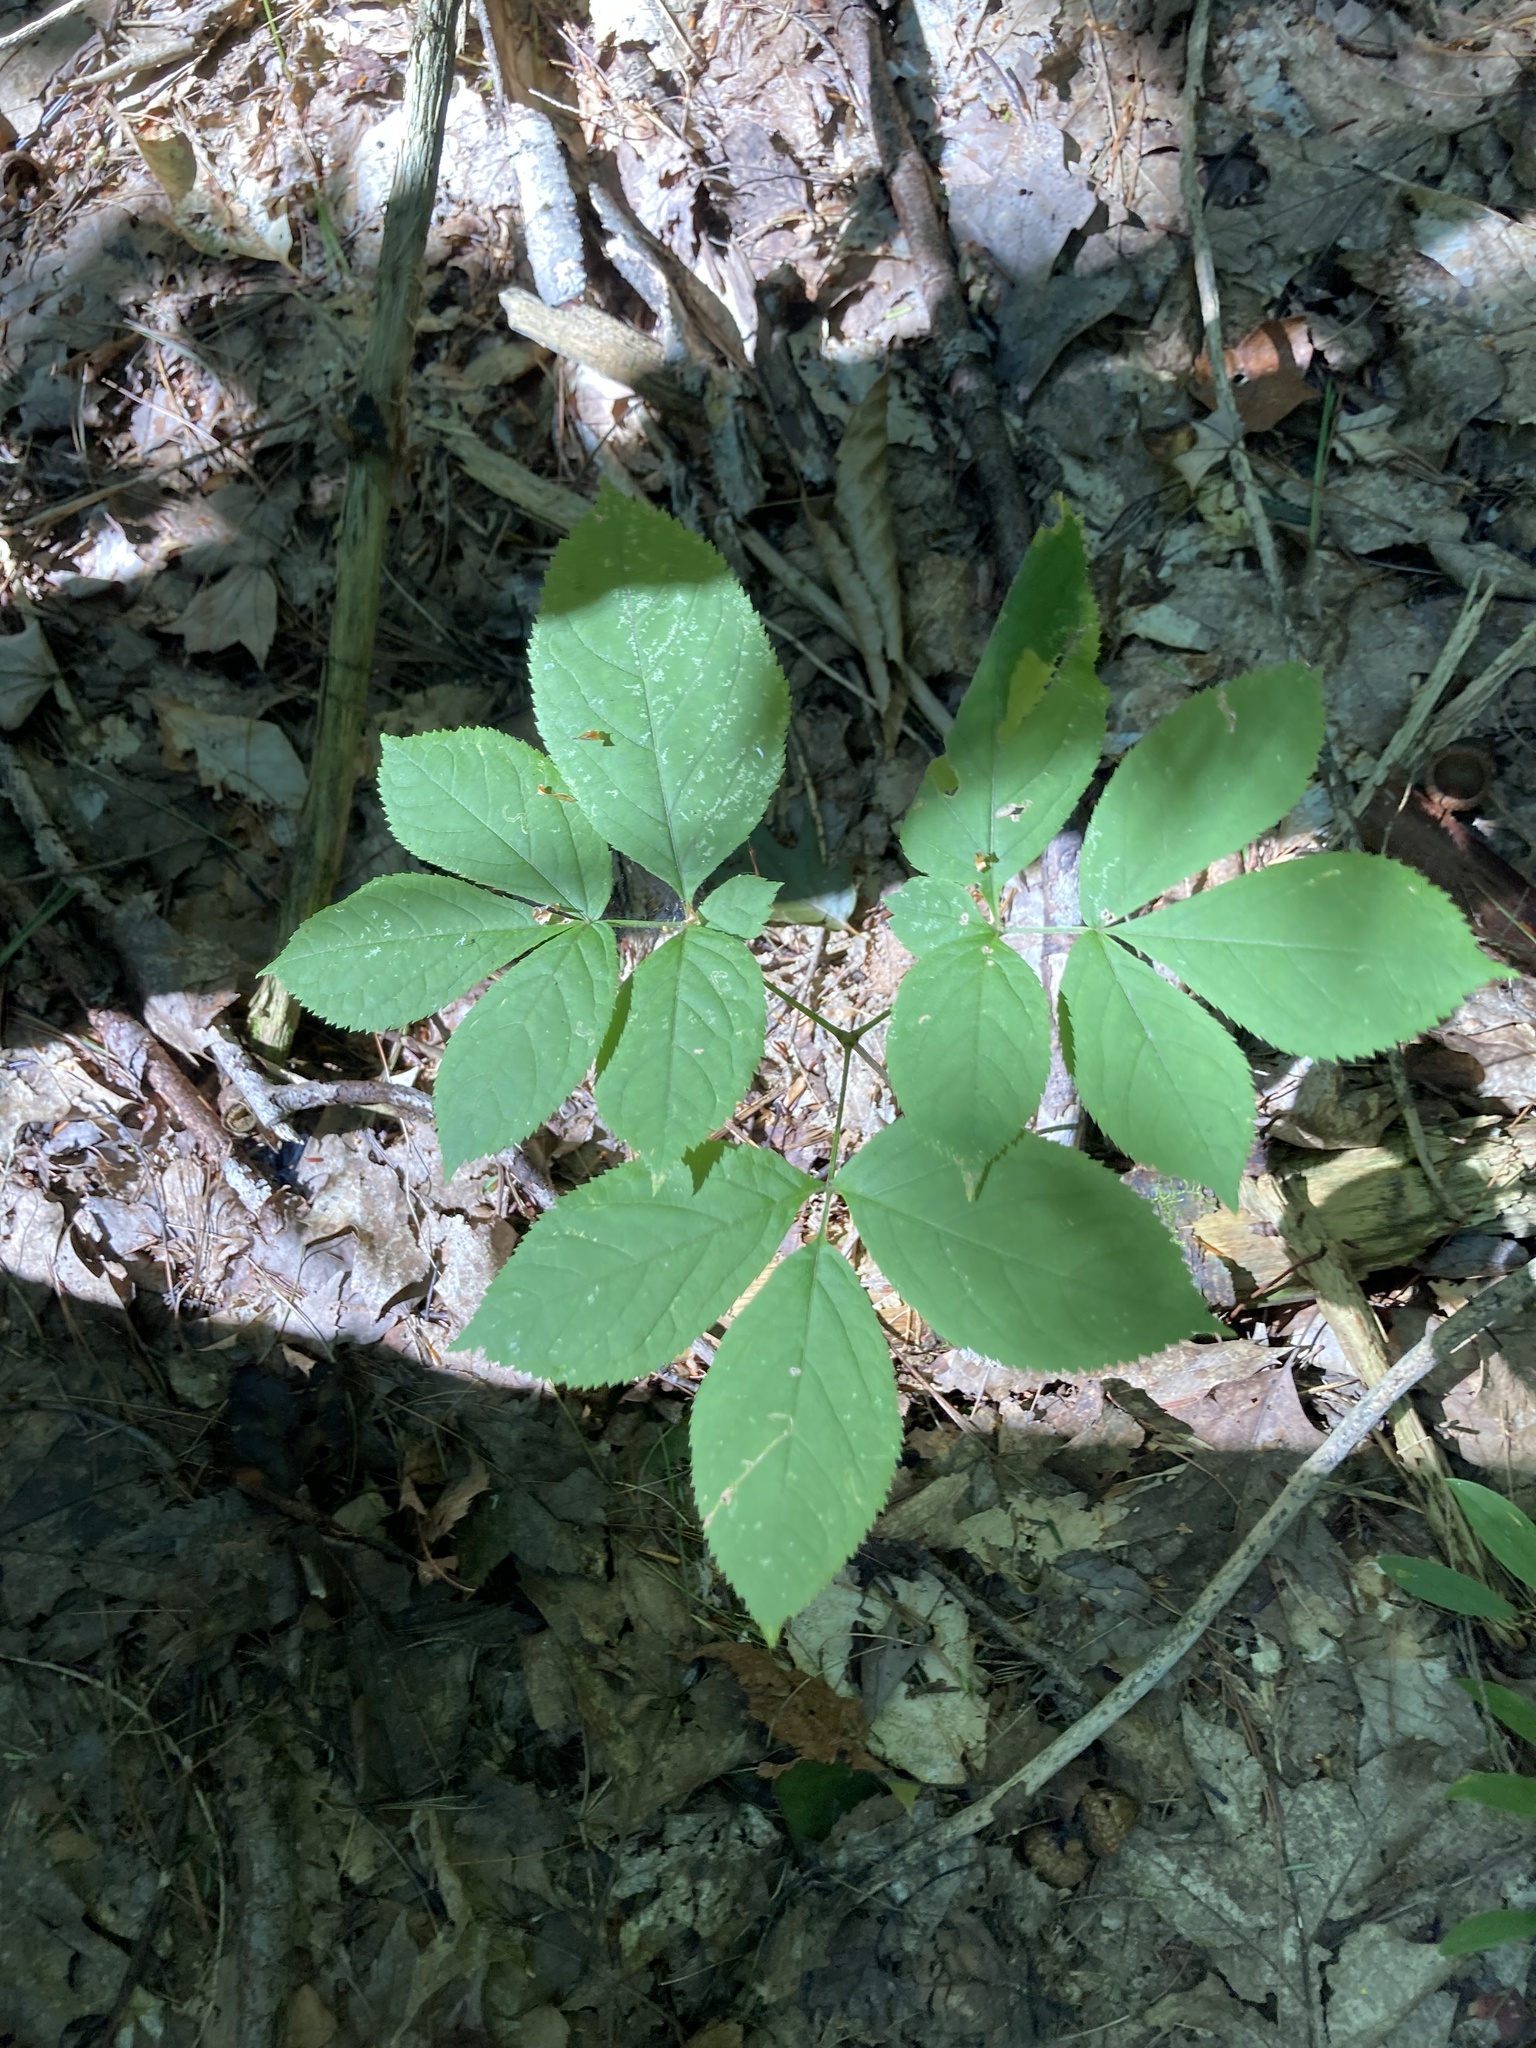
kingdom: Plantae
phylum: Tracheophyta
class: Magnoliopsida
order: Apiales
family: Araliaceae
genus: Aralia
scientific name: Aralia nudicaulis
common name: Wild sarsaparilla
